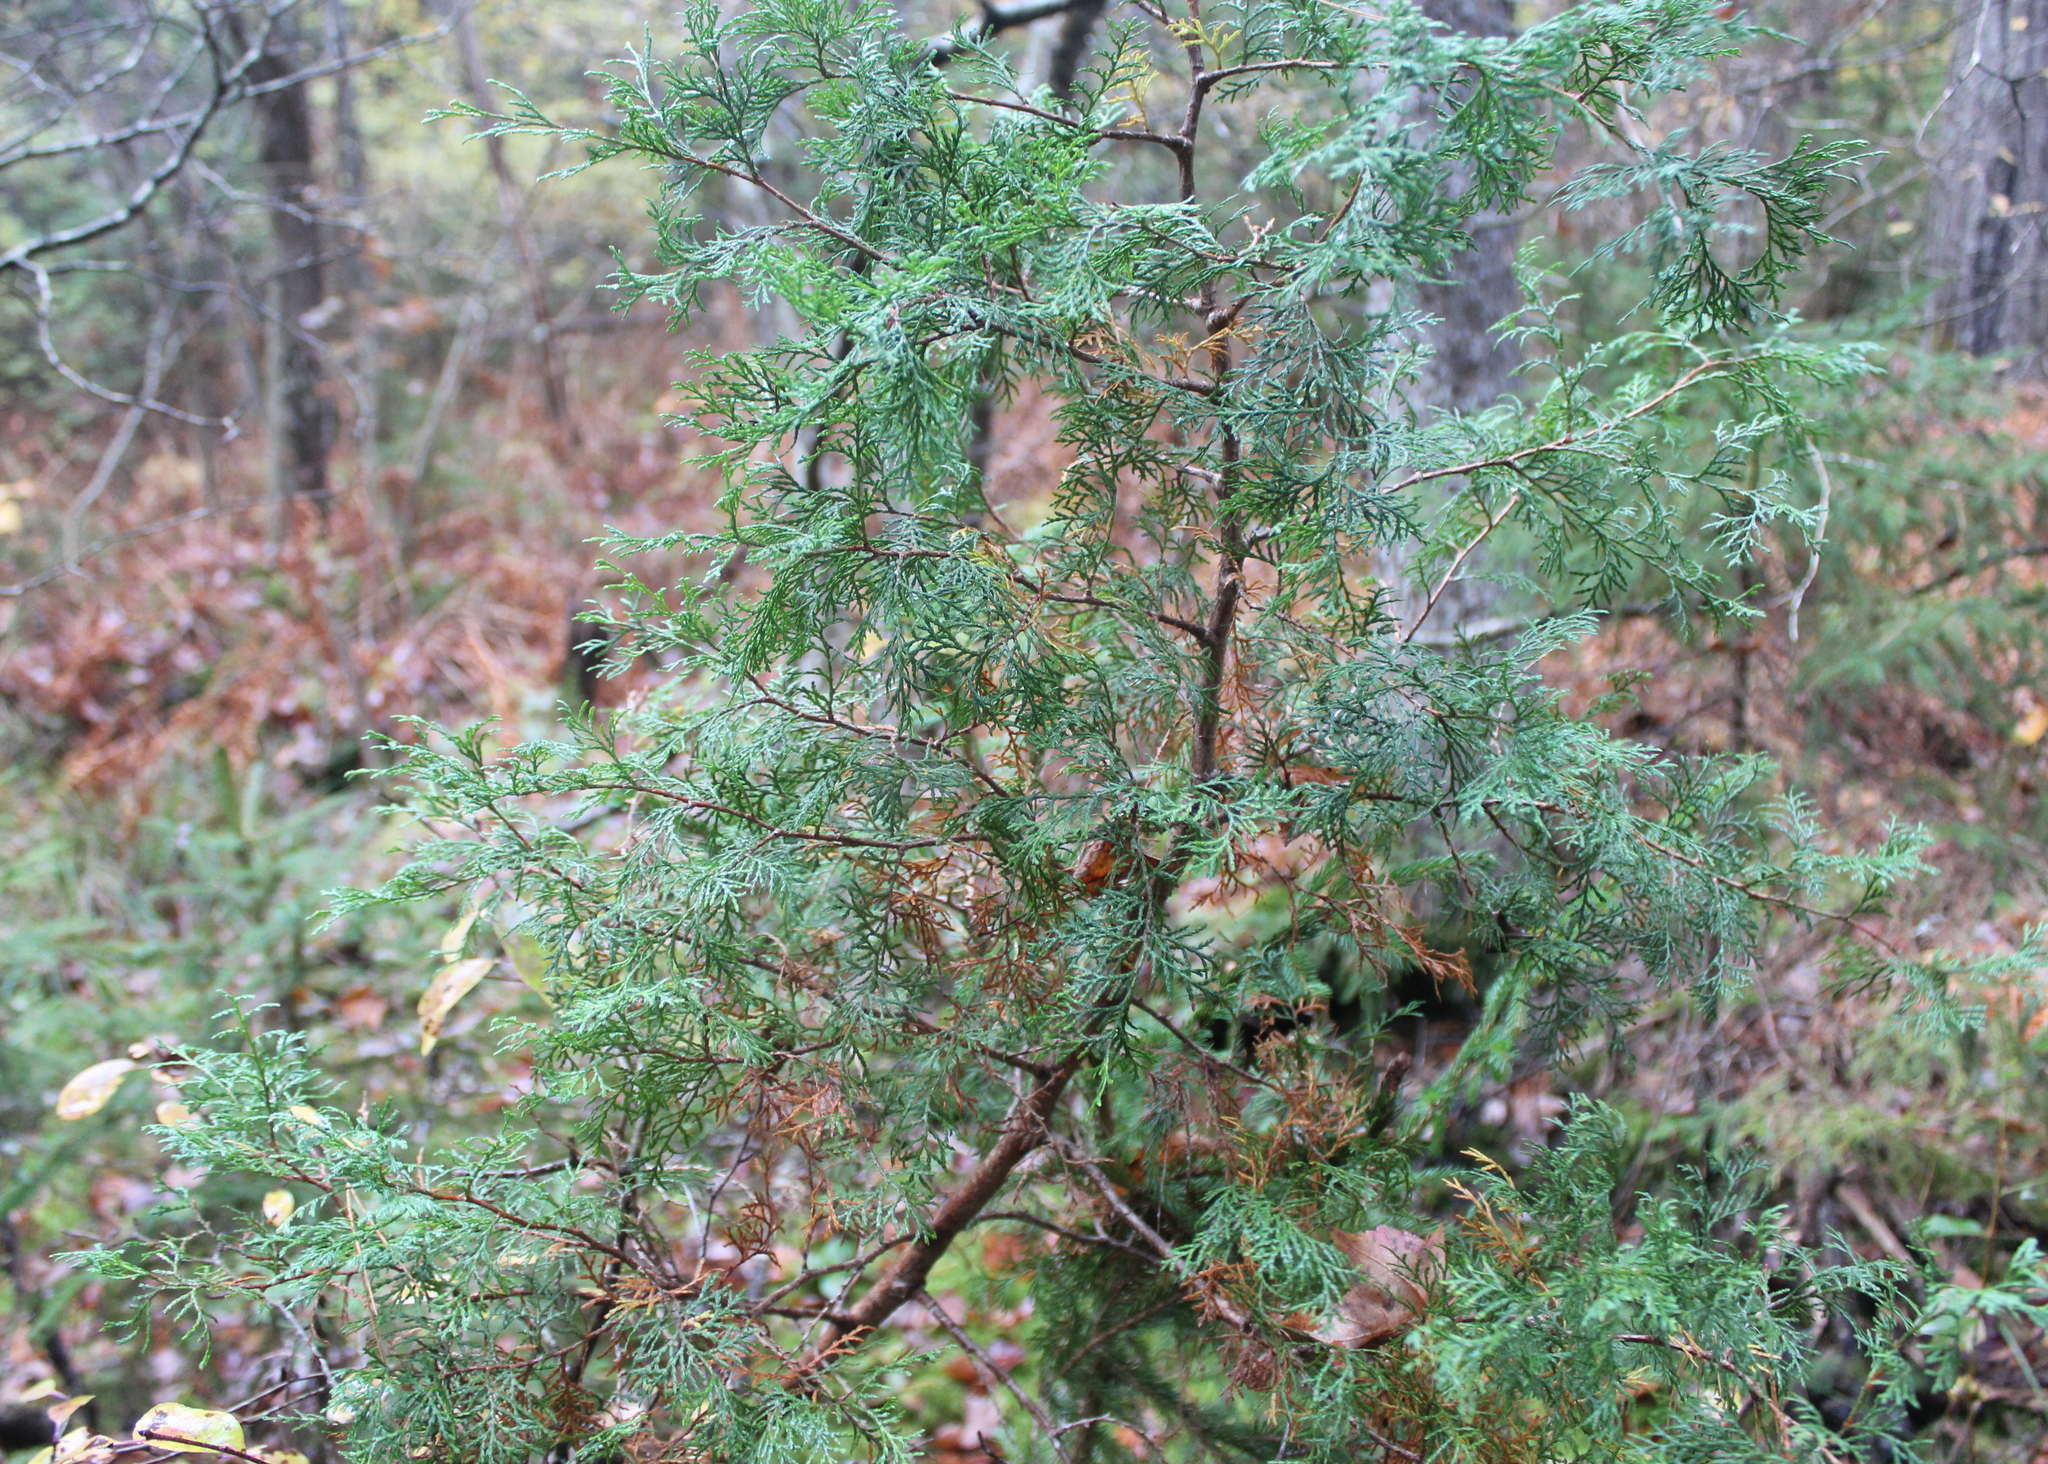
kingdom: Plantae
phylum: Tracheophyta
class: Pinopsida
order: Pinales
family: Cupressaceae
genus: Chamaecyparis
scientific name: Chamaecyparis thyoides
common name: Atlantic white cedar
